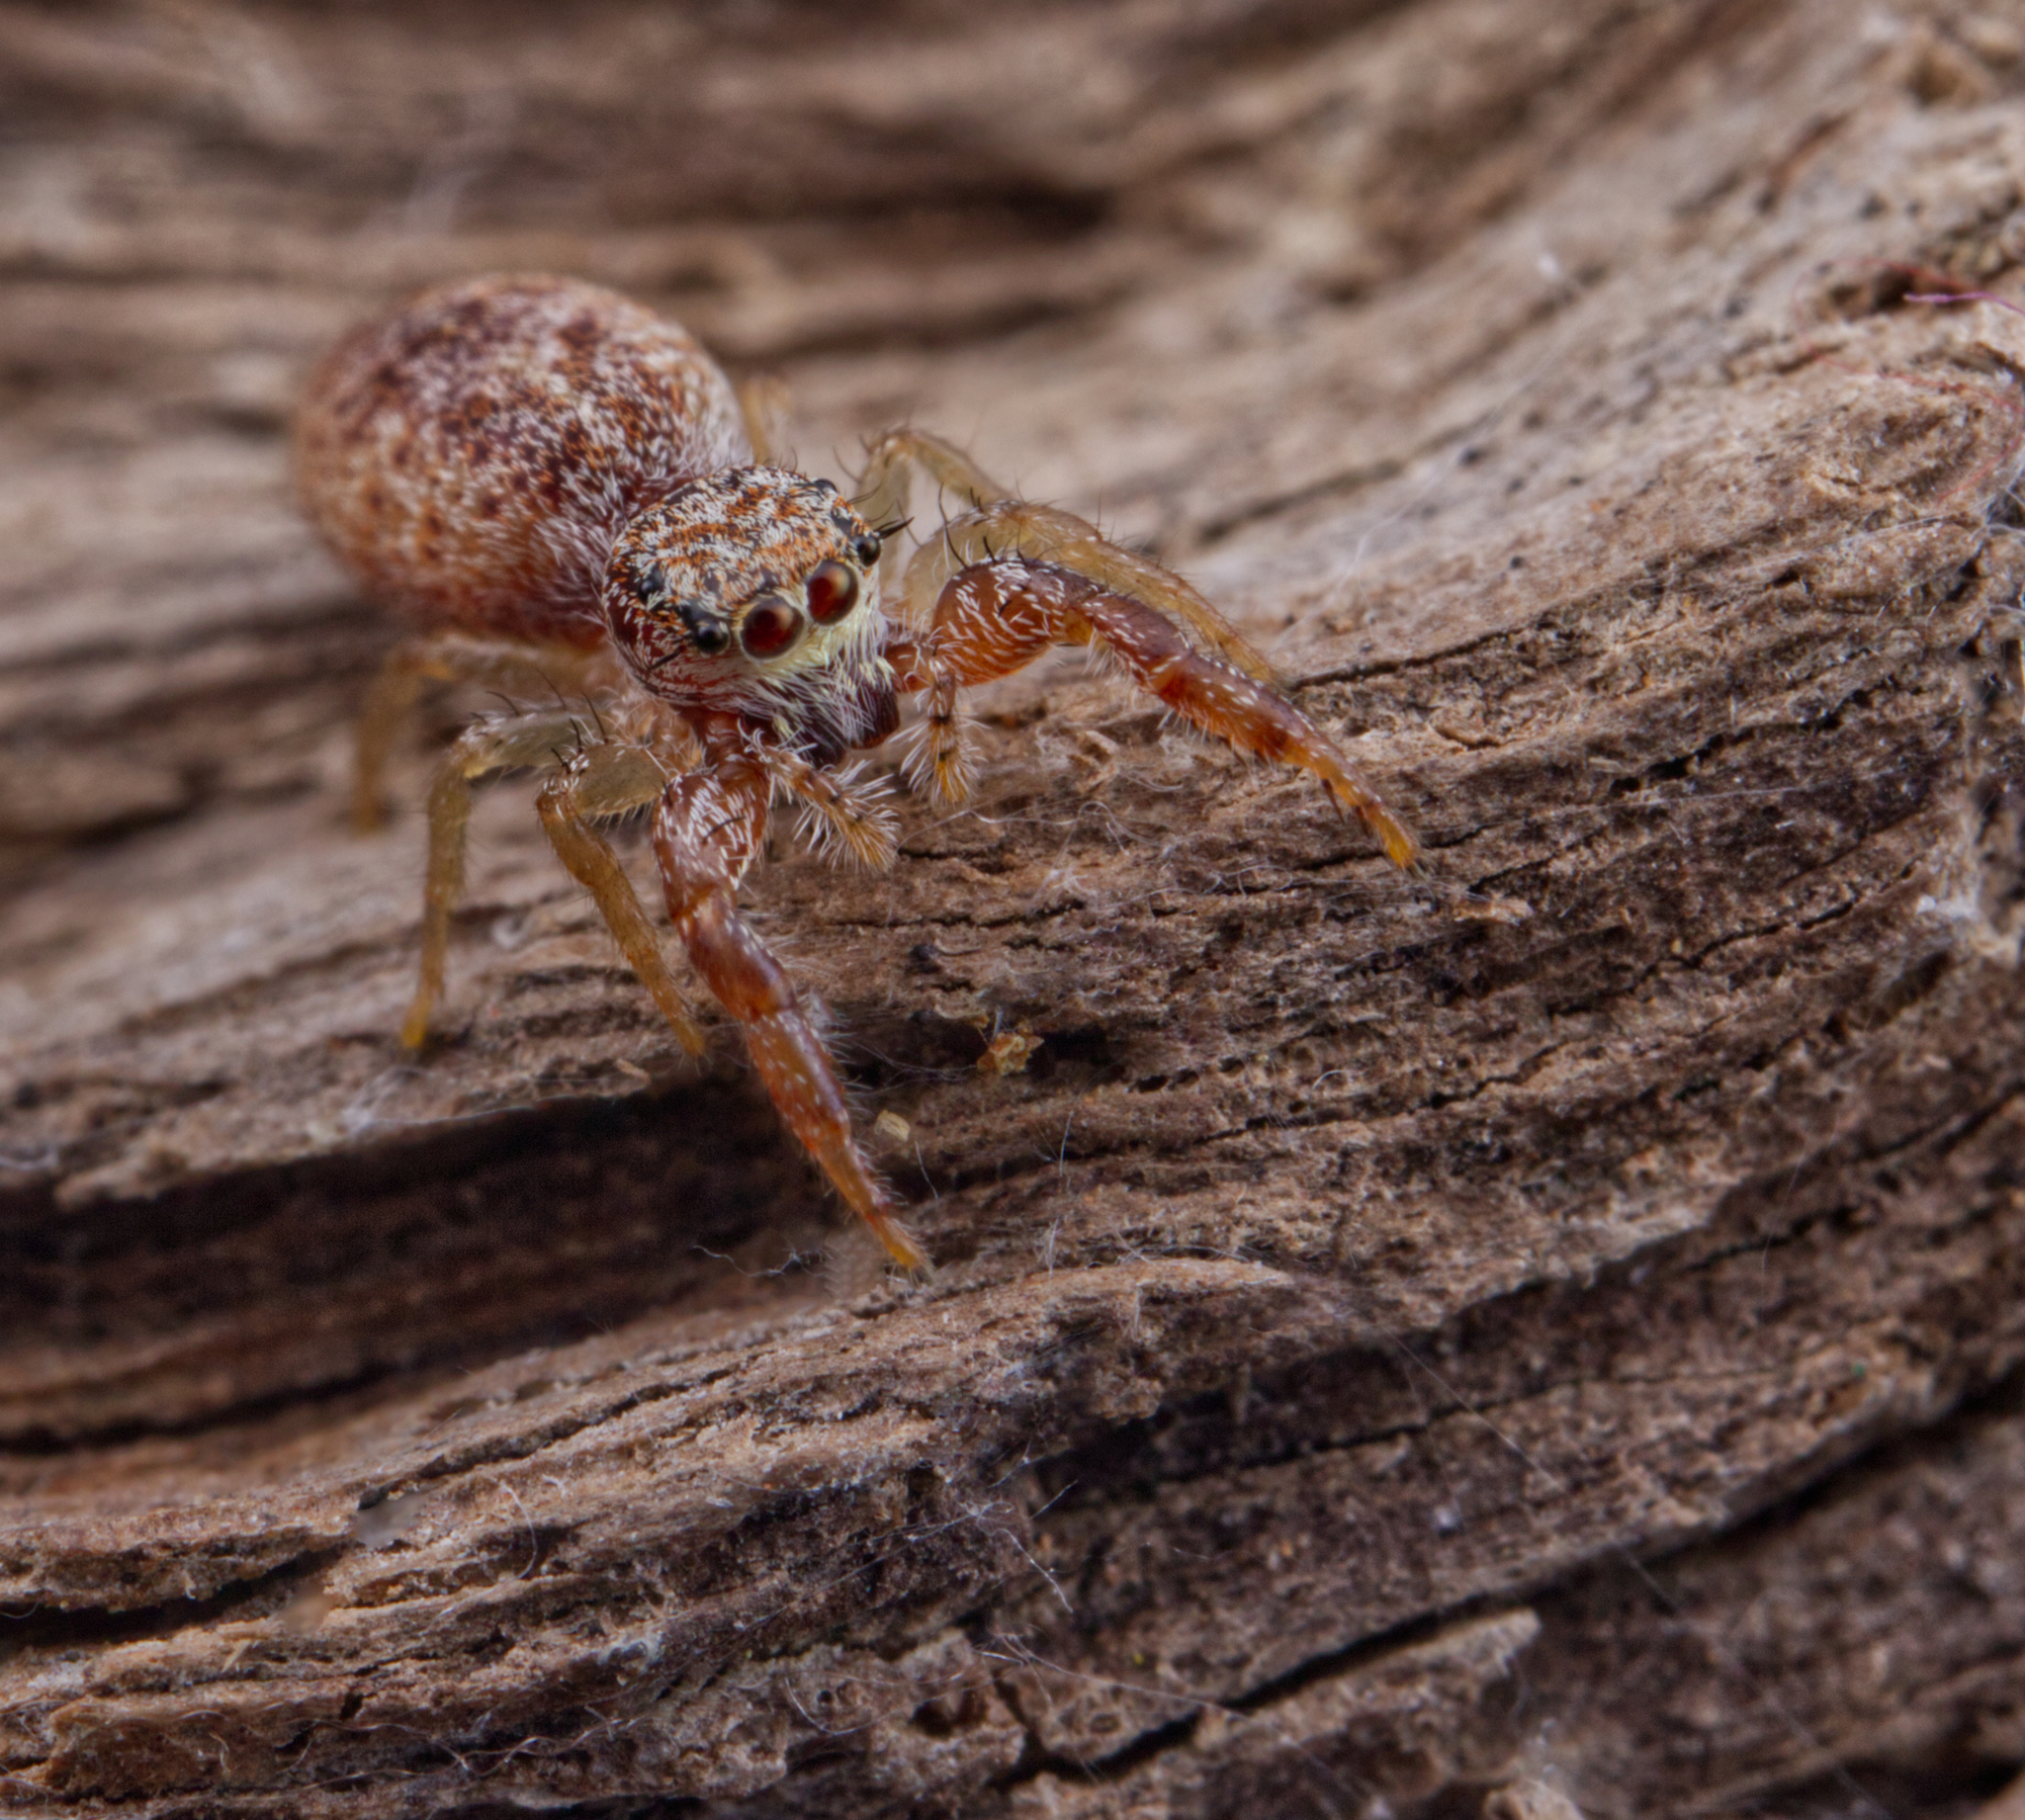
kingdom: Animalia
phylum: Arthropoda
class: Arachnida
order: Araneae
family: Salticidae
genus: Hentzia
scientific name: Hentzia palmarum
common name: Common hentz jumping spider
